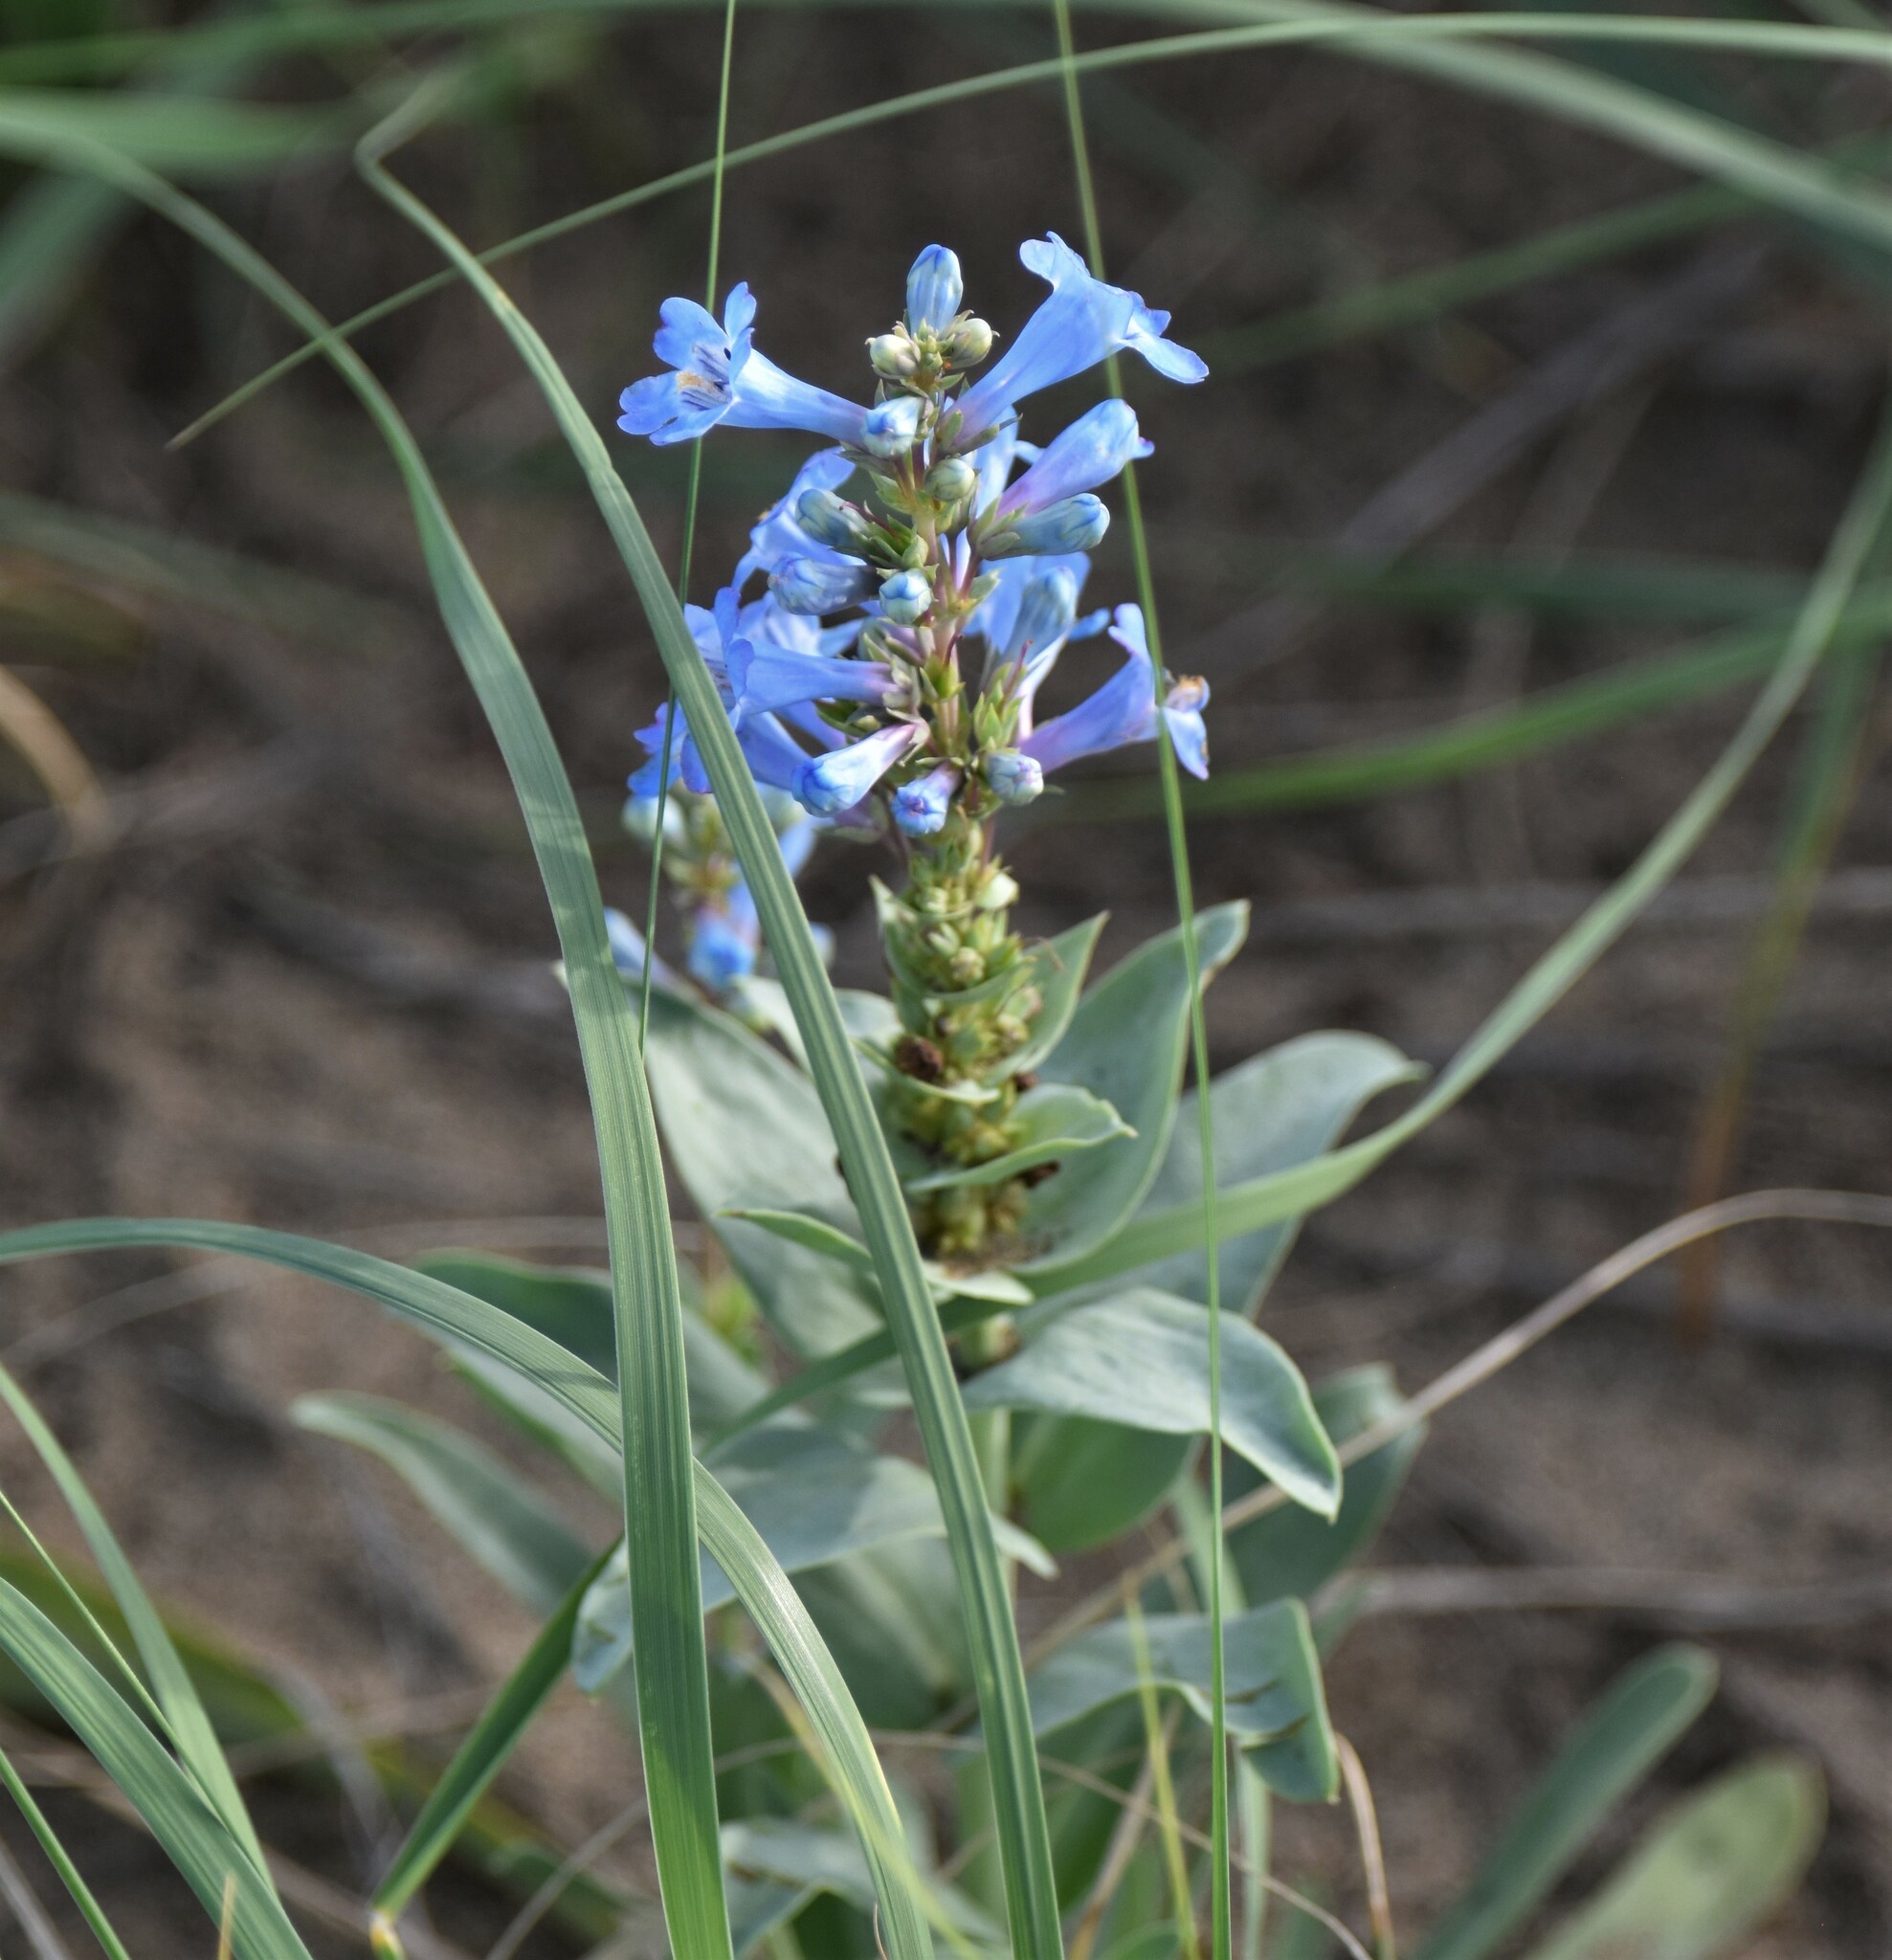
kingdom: Plantae
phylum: Tracheophyta
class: Magnoliopsida
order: Lamiales
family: Plantaginaceae
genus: Penstemon
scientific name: Penstemon nitidus
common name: Shining penstemon
